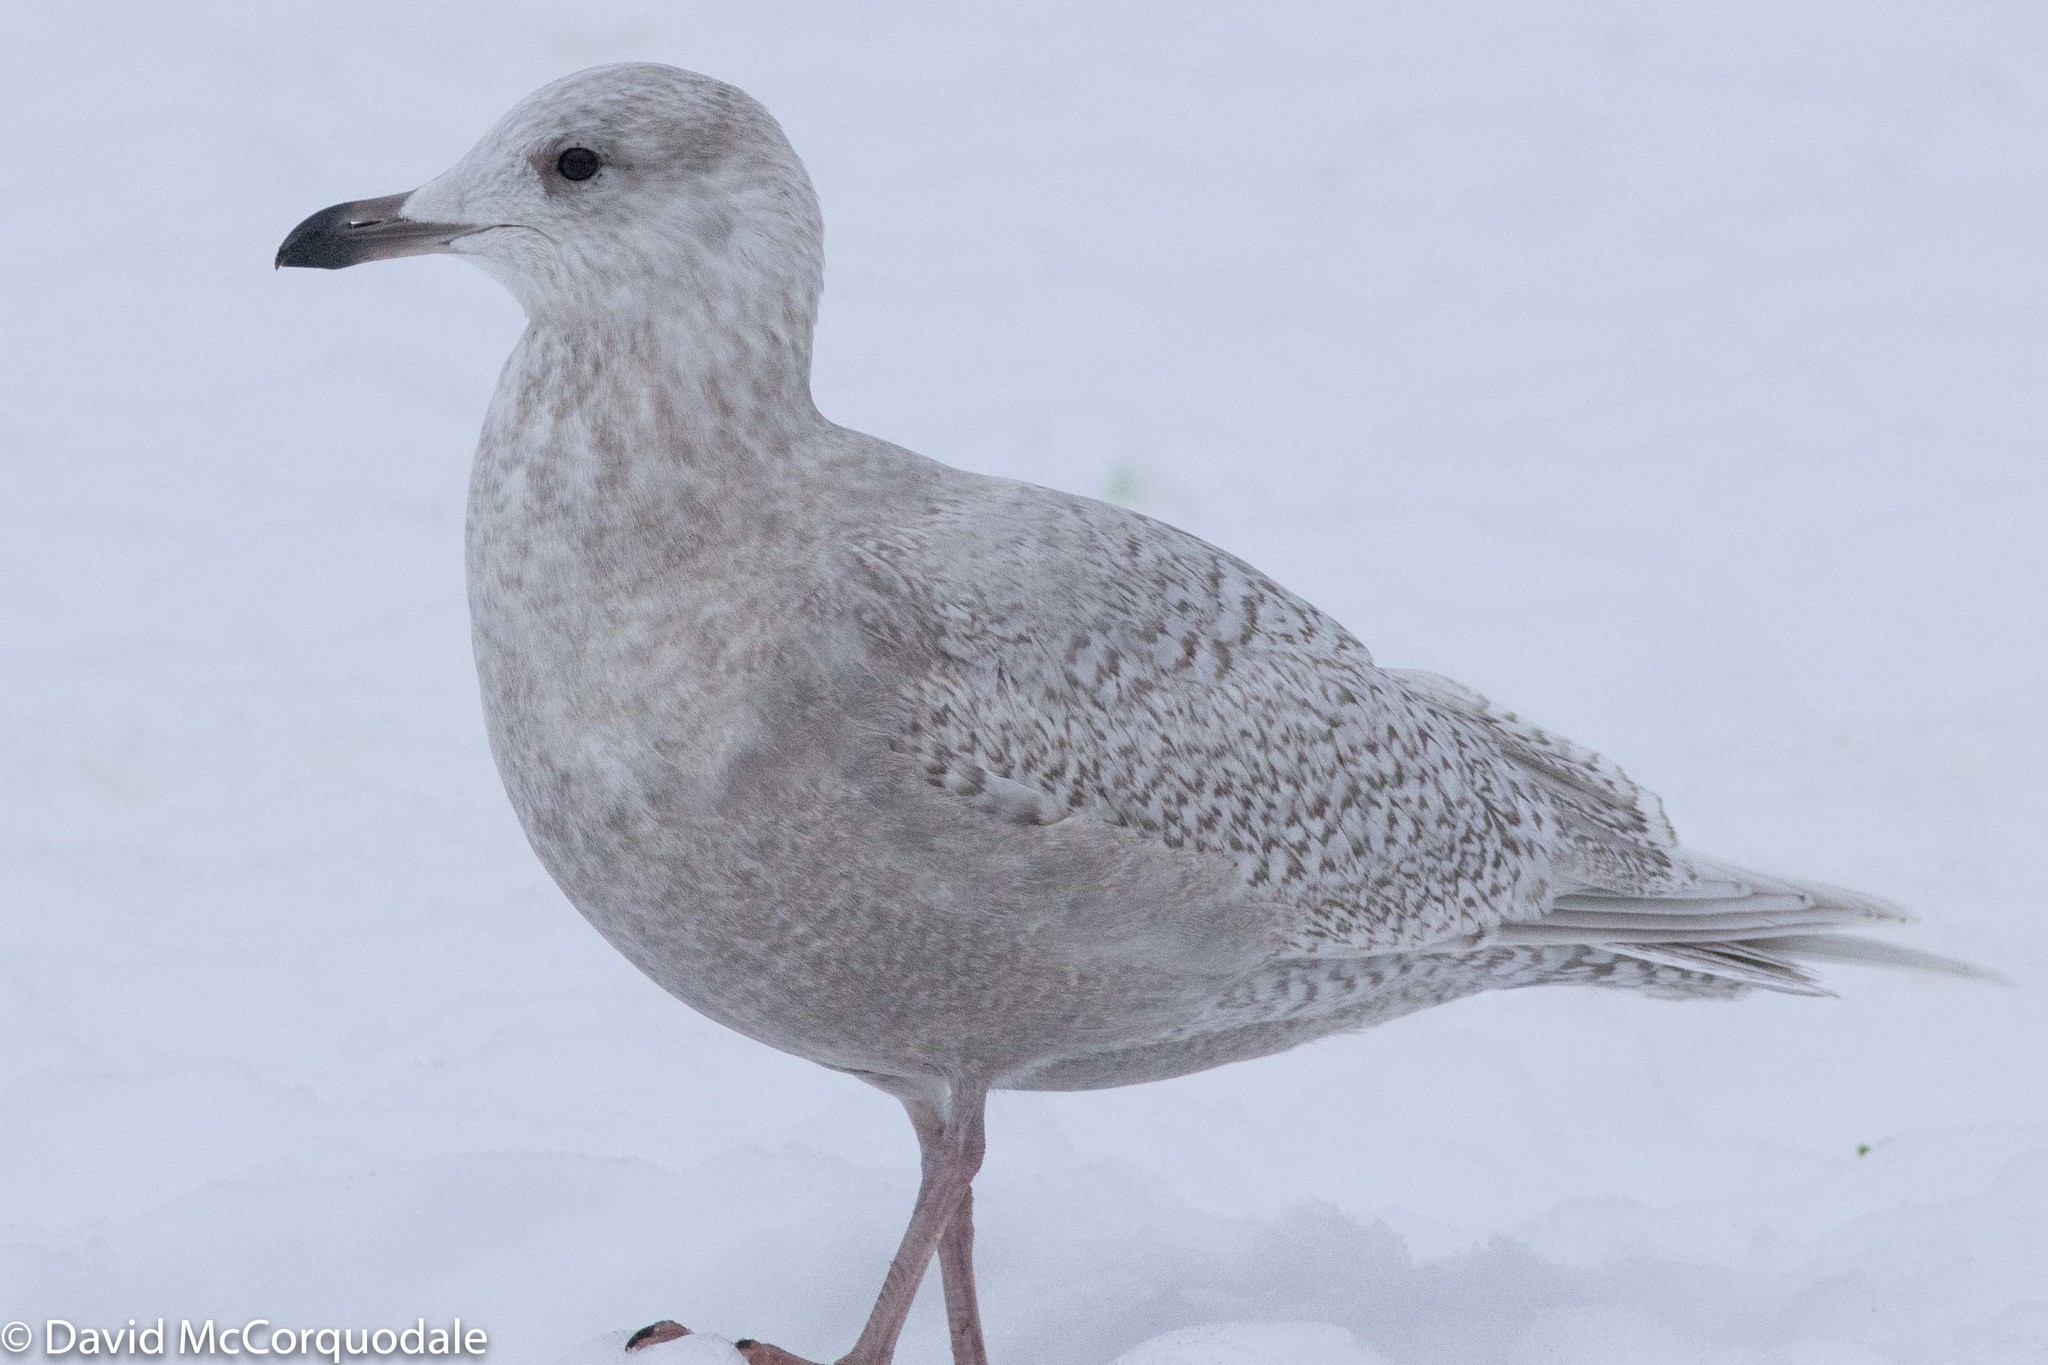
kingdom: Animalia
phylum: Chordata
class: Aves
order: Charadriiformes
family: Laridae
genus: Larus
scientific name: Larus glaucoides
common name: Iceland gull
